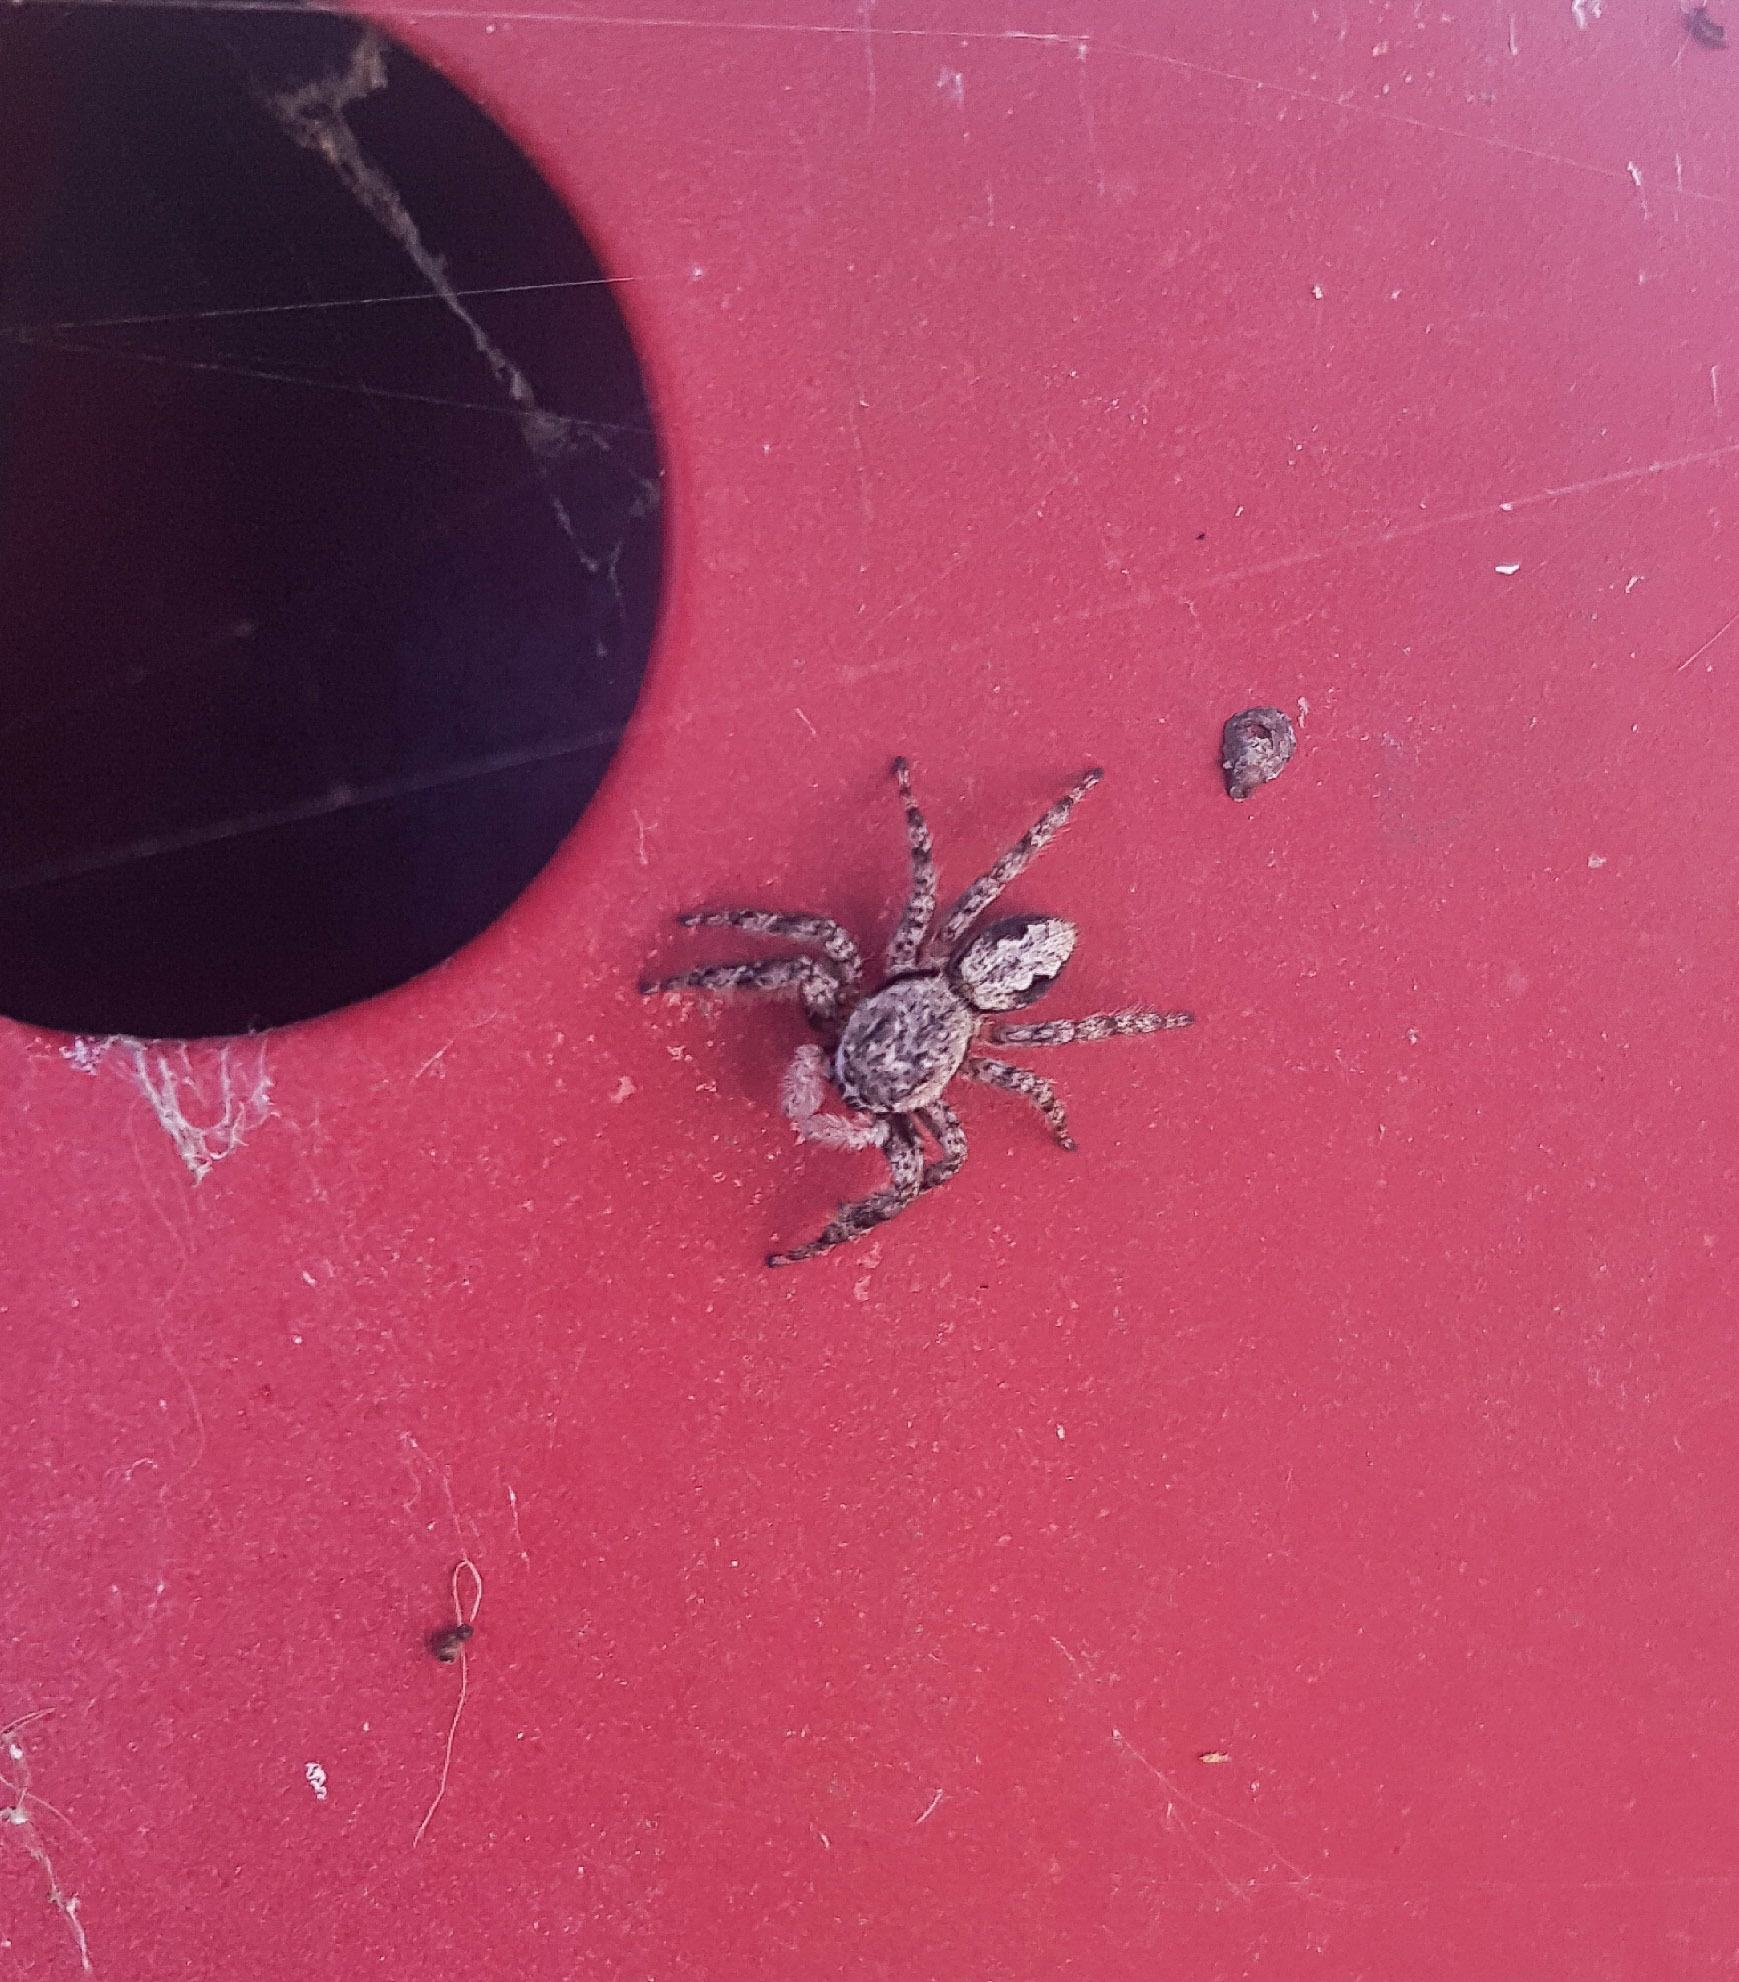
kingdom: Animalia
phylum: Arthropoda
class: Arachnida
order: Araneae
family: Salticidae
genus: Platycryptus
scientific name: Platycryptus undatus
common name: Tan jumping spider
